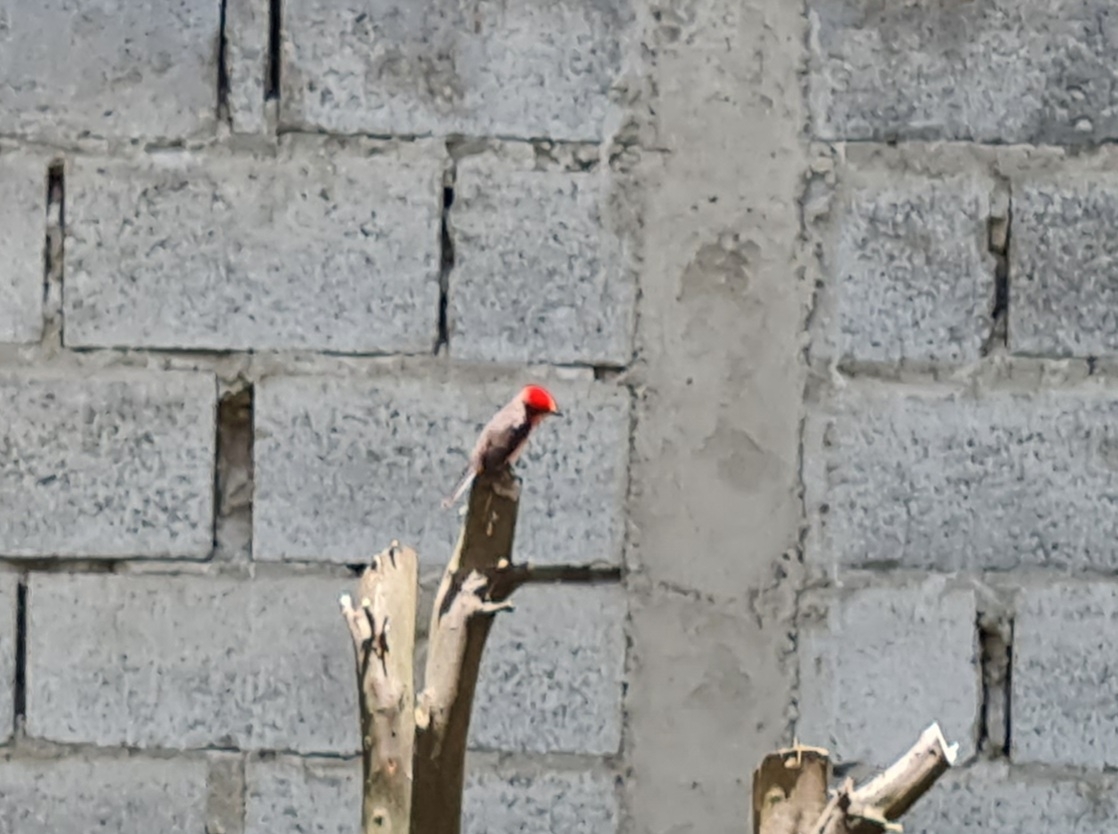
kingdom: Animalia
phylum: Chordata
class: Aves
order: Passeriformes
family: Tyrannidae
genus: Pyrocephalus
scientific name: Pyrocephalus rubinus
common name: Vermilion flycatcher
